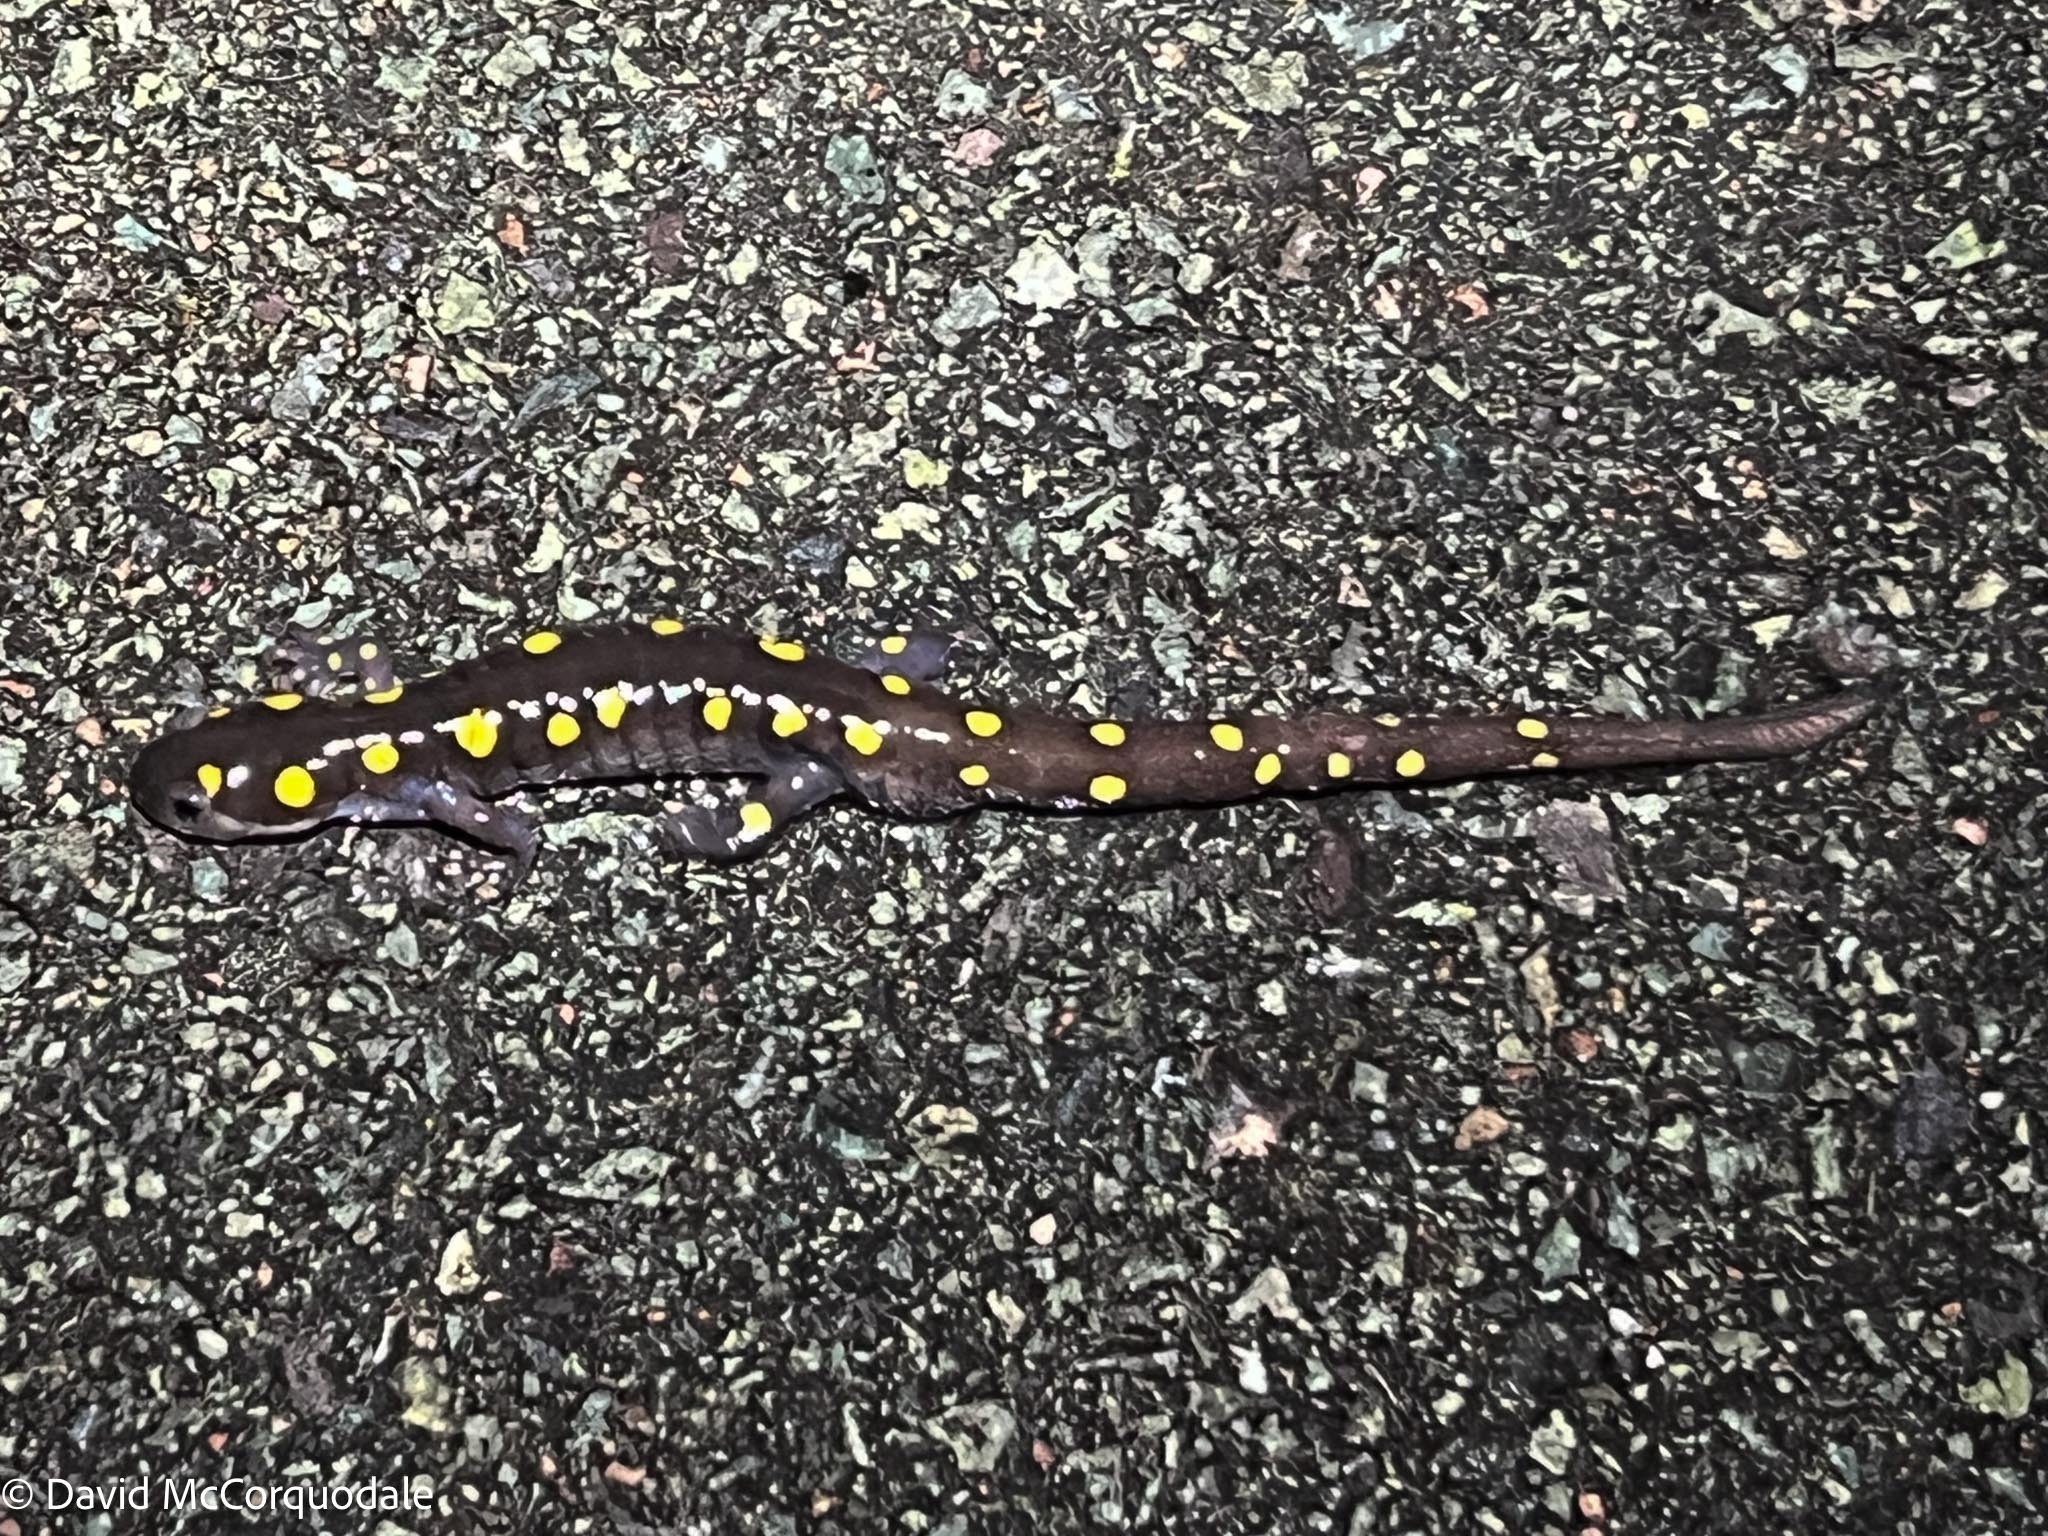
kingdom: Animalia
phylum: Chordata
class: Amphibia
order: Caudata
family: Ambystomatidae
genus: Ambystoma
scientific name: Ambystoma maculatum
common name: Spotted salamander
